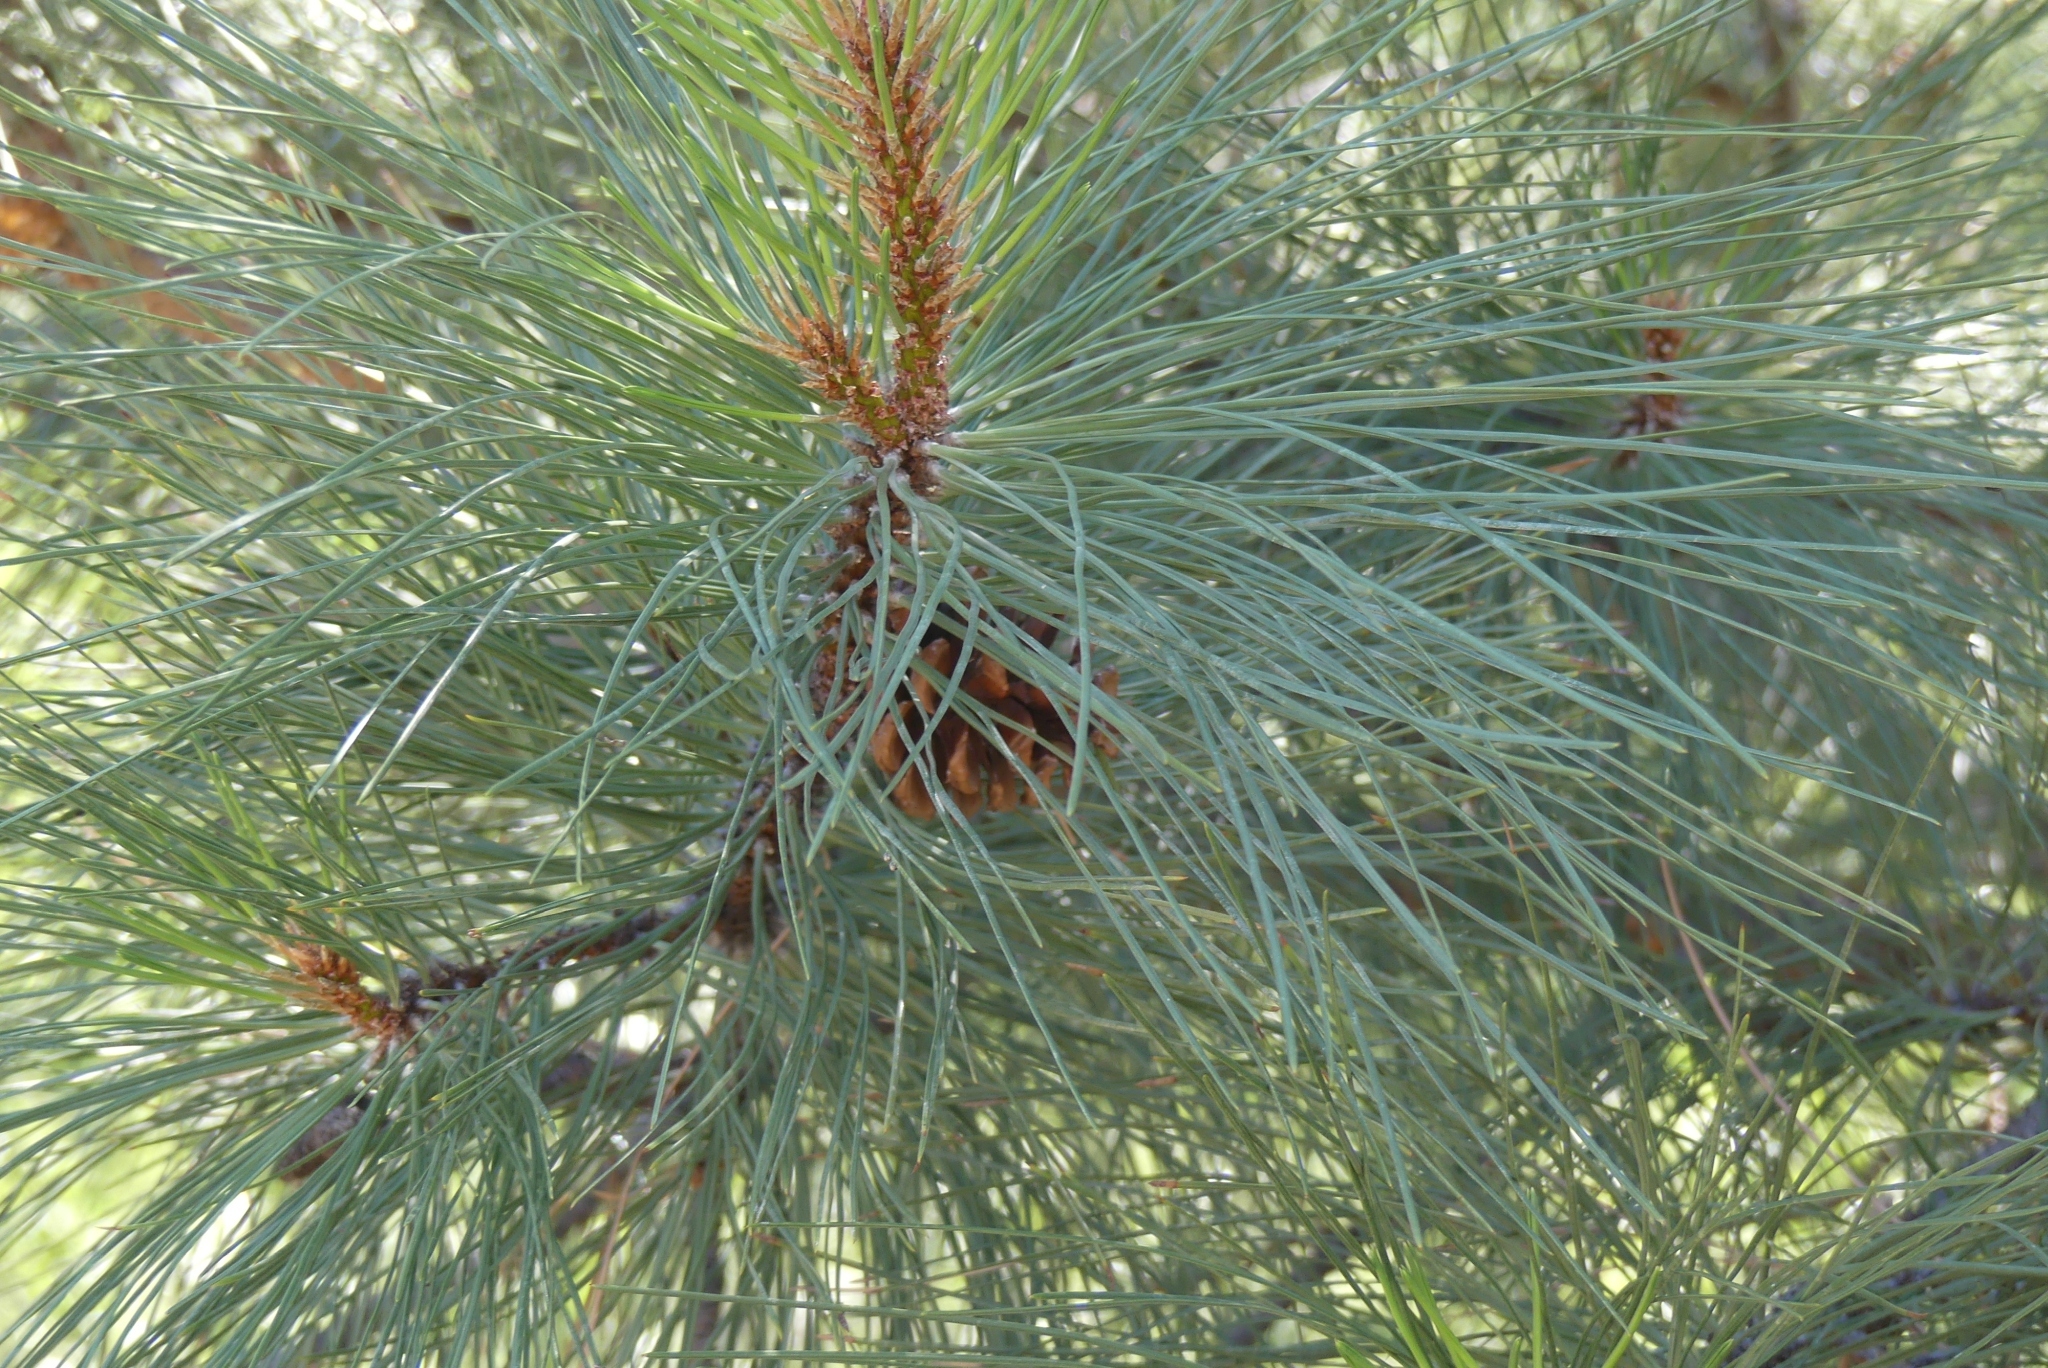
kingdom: Plantae
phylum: Tracheophyta
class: Pinopsida
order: Pinales
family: Pinaceae
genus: Pinus
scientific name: Pinus ponderosa
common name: Western yellow-pine
